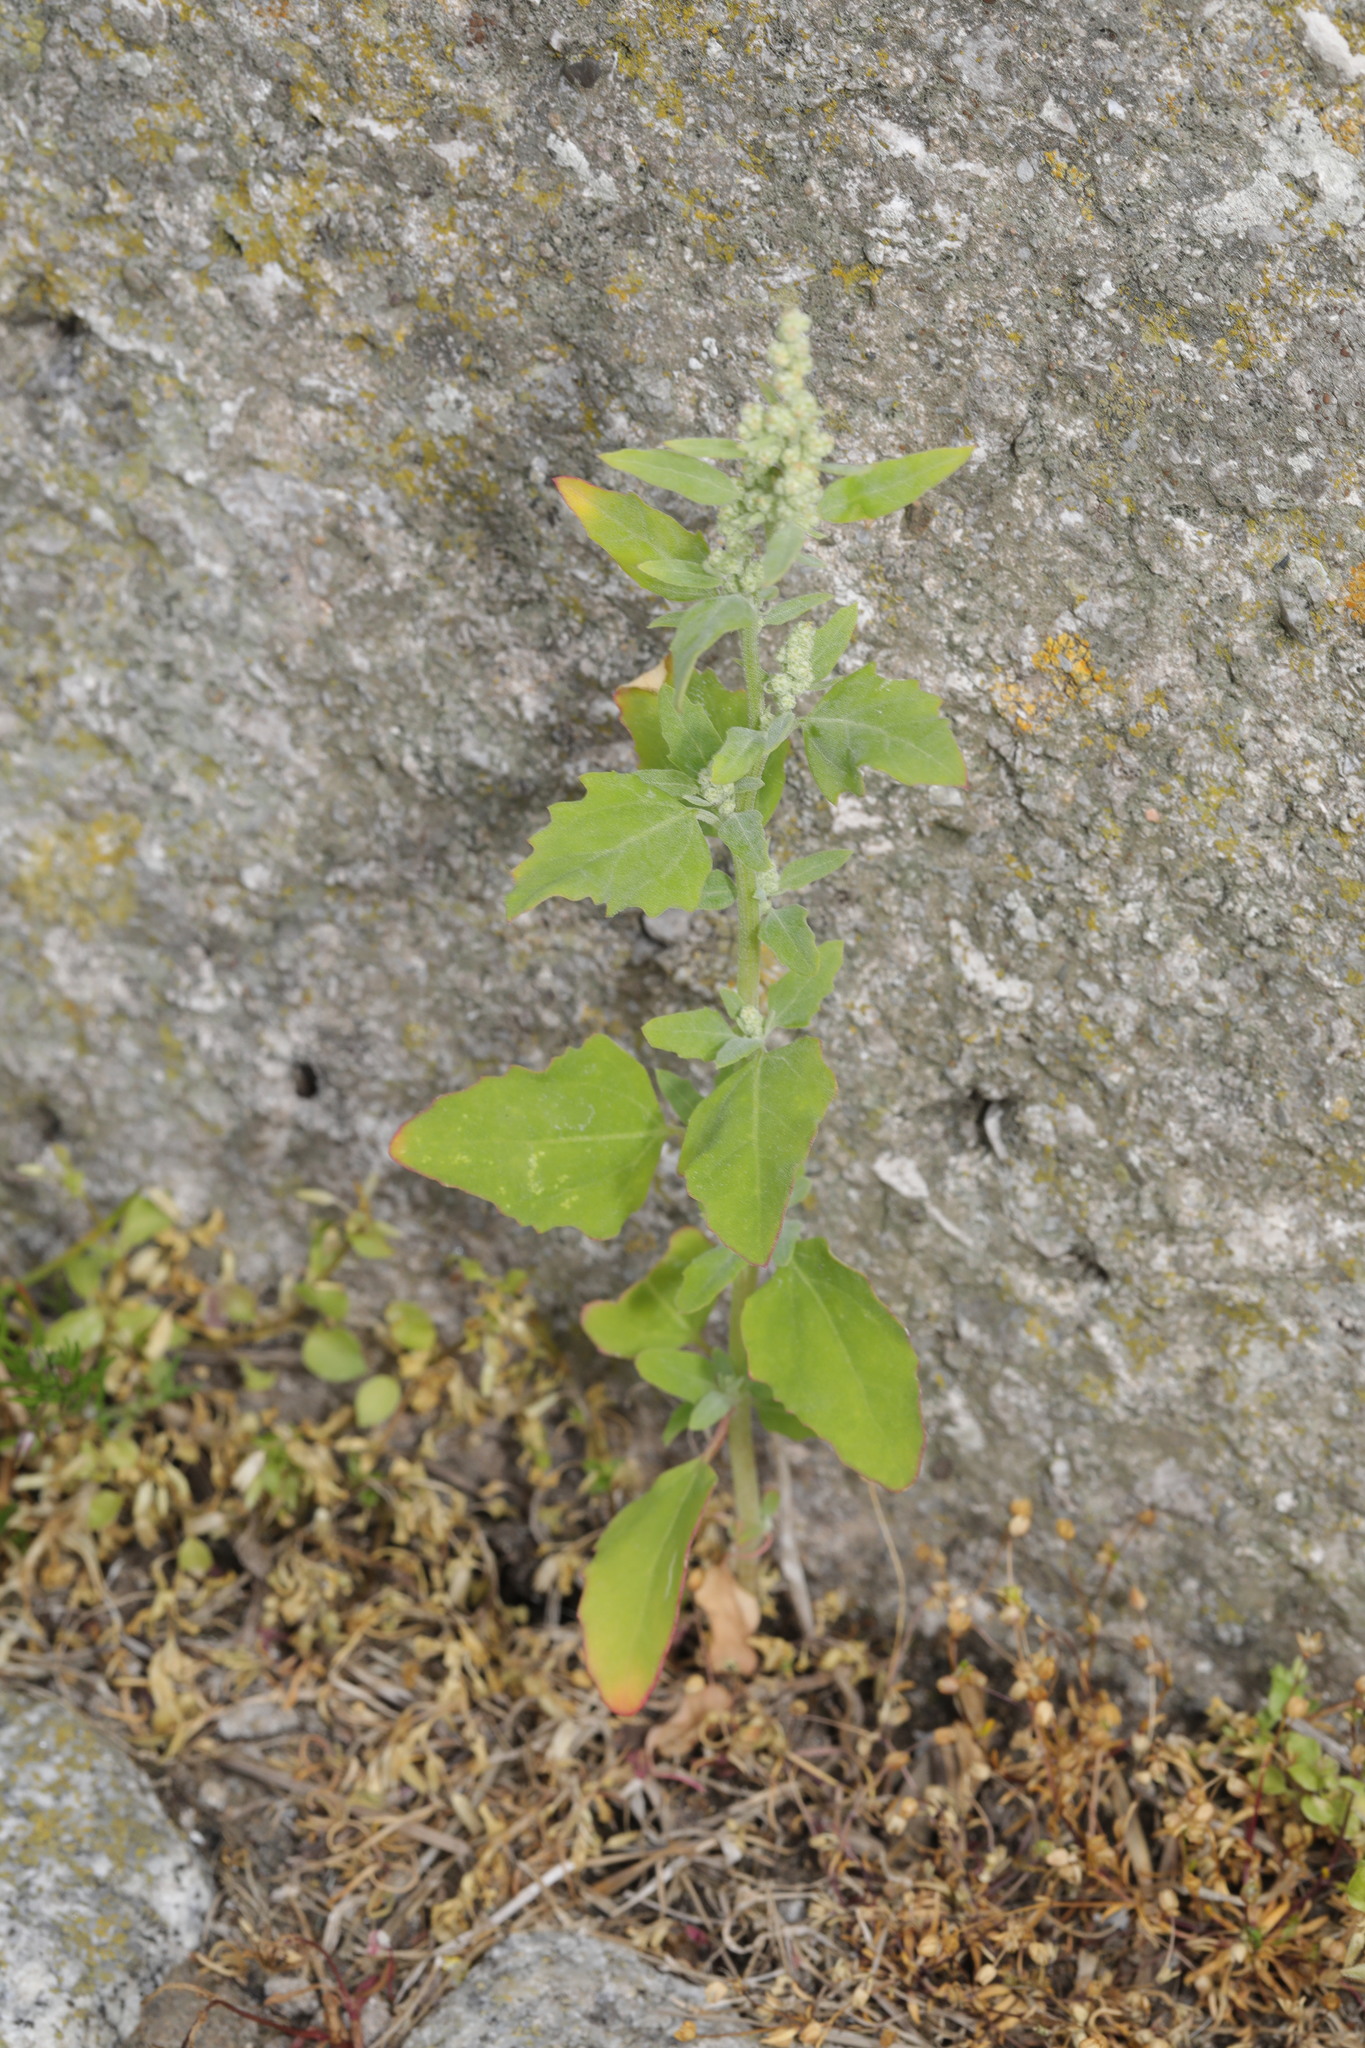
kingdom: Plantae
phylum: Tracheophyta
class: Magnoliopsida
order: Caryophyllales
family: Amaranthaceae
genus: Chenopodium
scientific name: Chenopodium album
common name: Fat-hen
